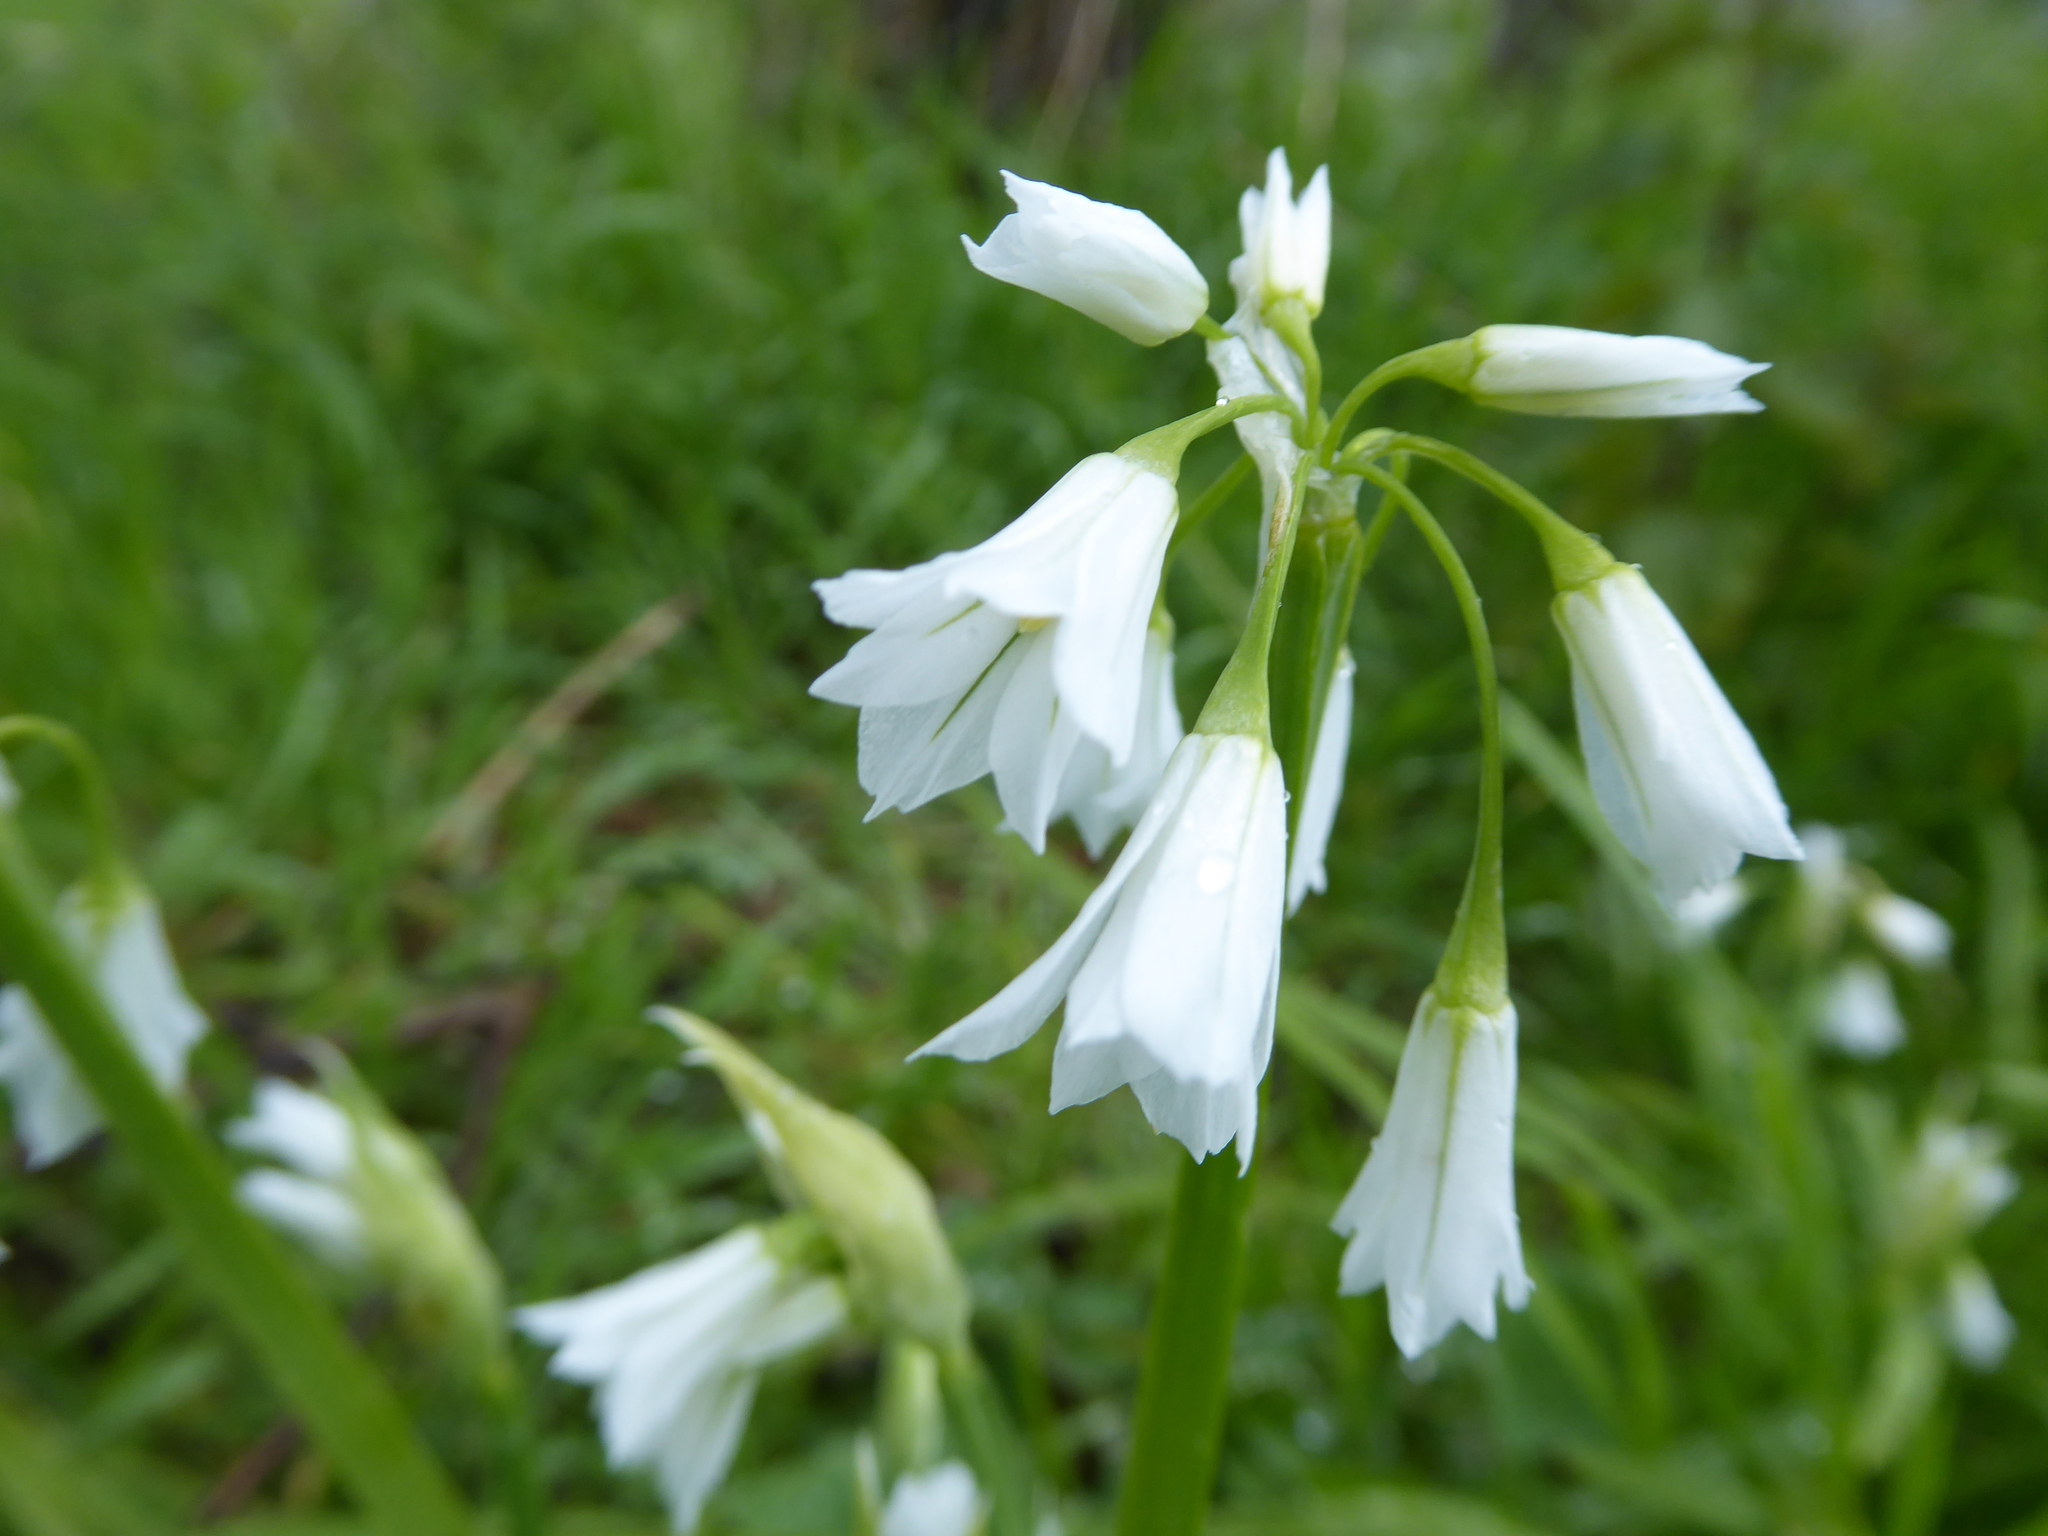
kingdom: Plantae
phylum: Tracheophyta
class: Liliopsida
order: Asparagales
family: Amaryllidaceae
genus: Allium
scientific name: Allium triquetrum
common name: Three-cornered garlic
